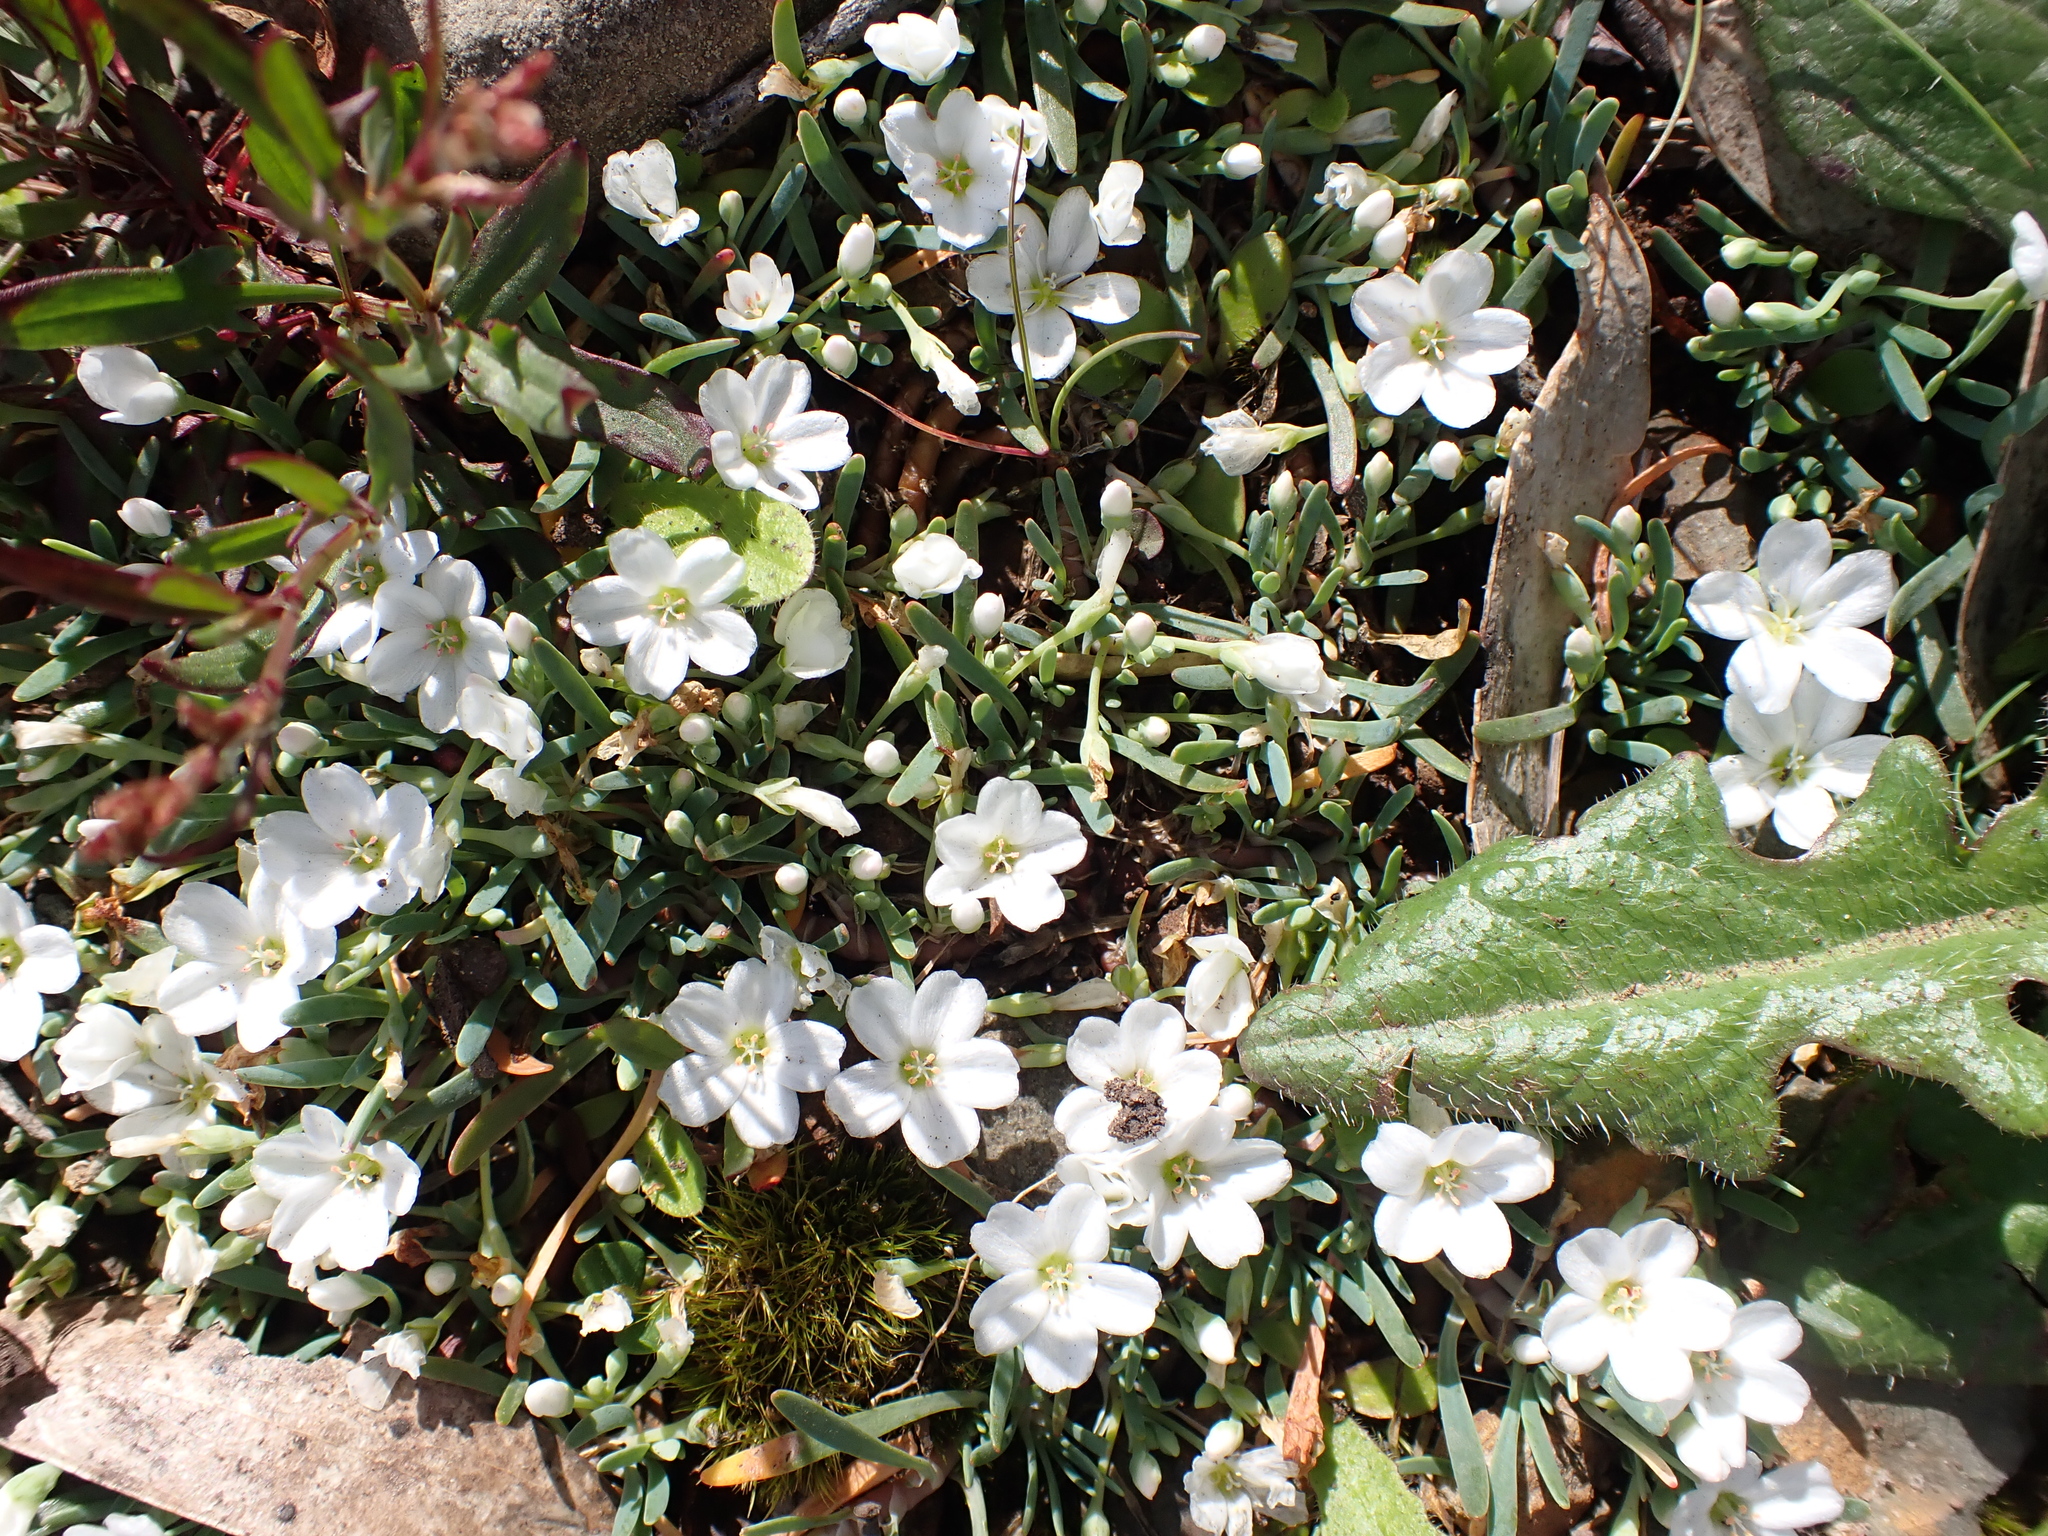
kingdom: Plantae
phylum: Tracheophyta
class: Magnoliopsida
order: Caryophyllales
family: Montiaceae
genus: Montia
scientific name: Montia australasica
